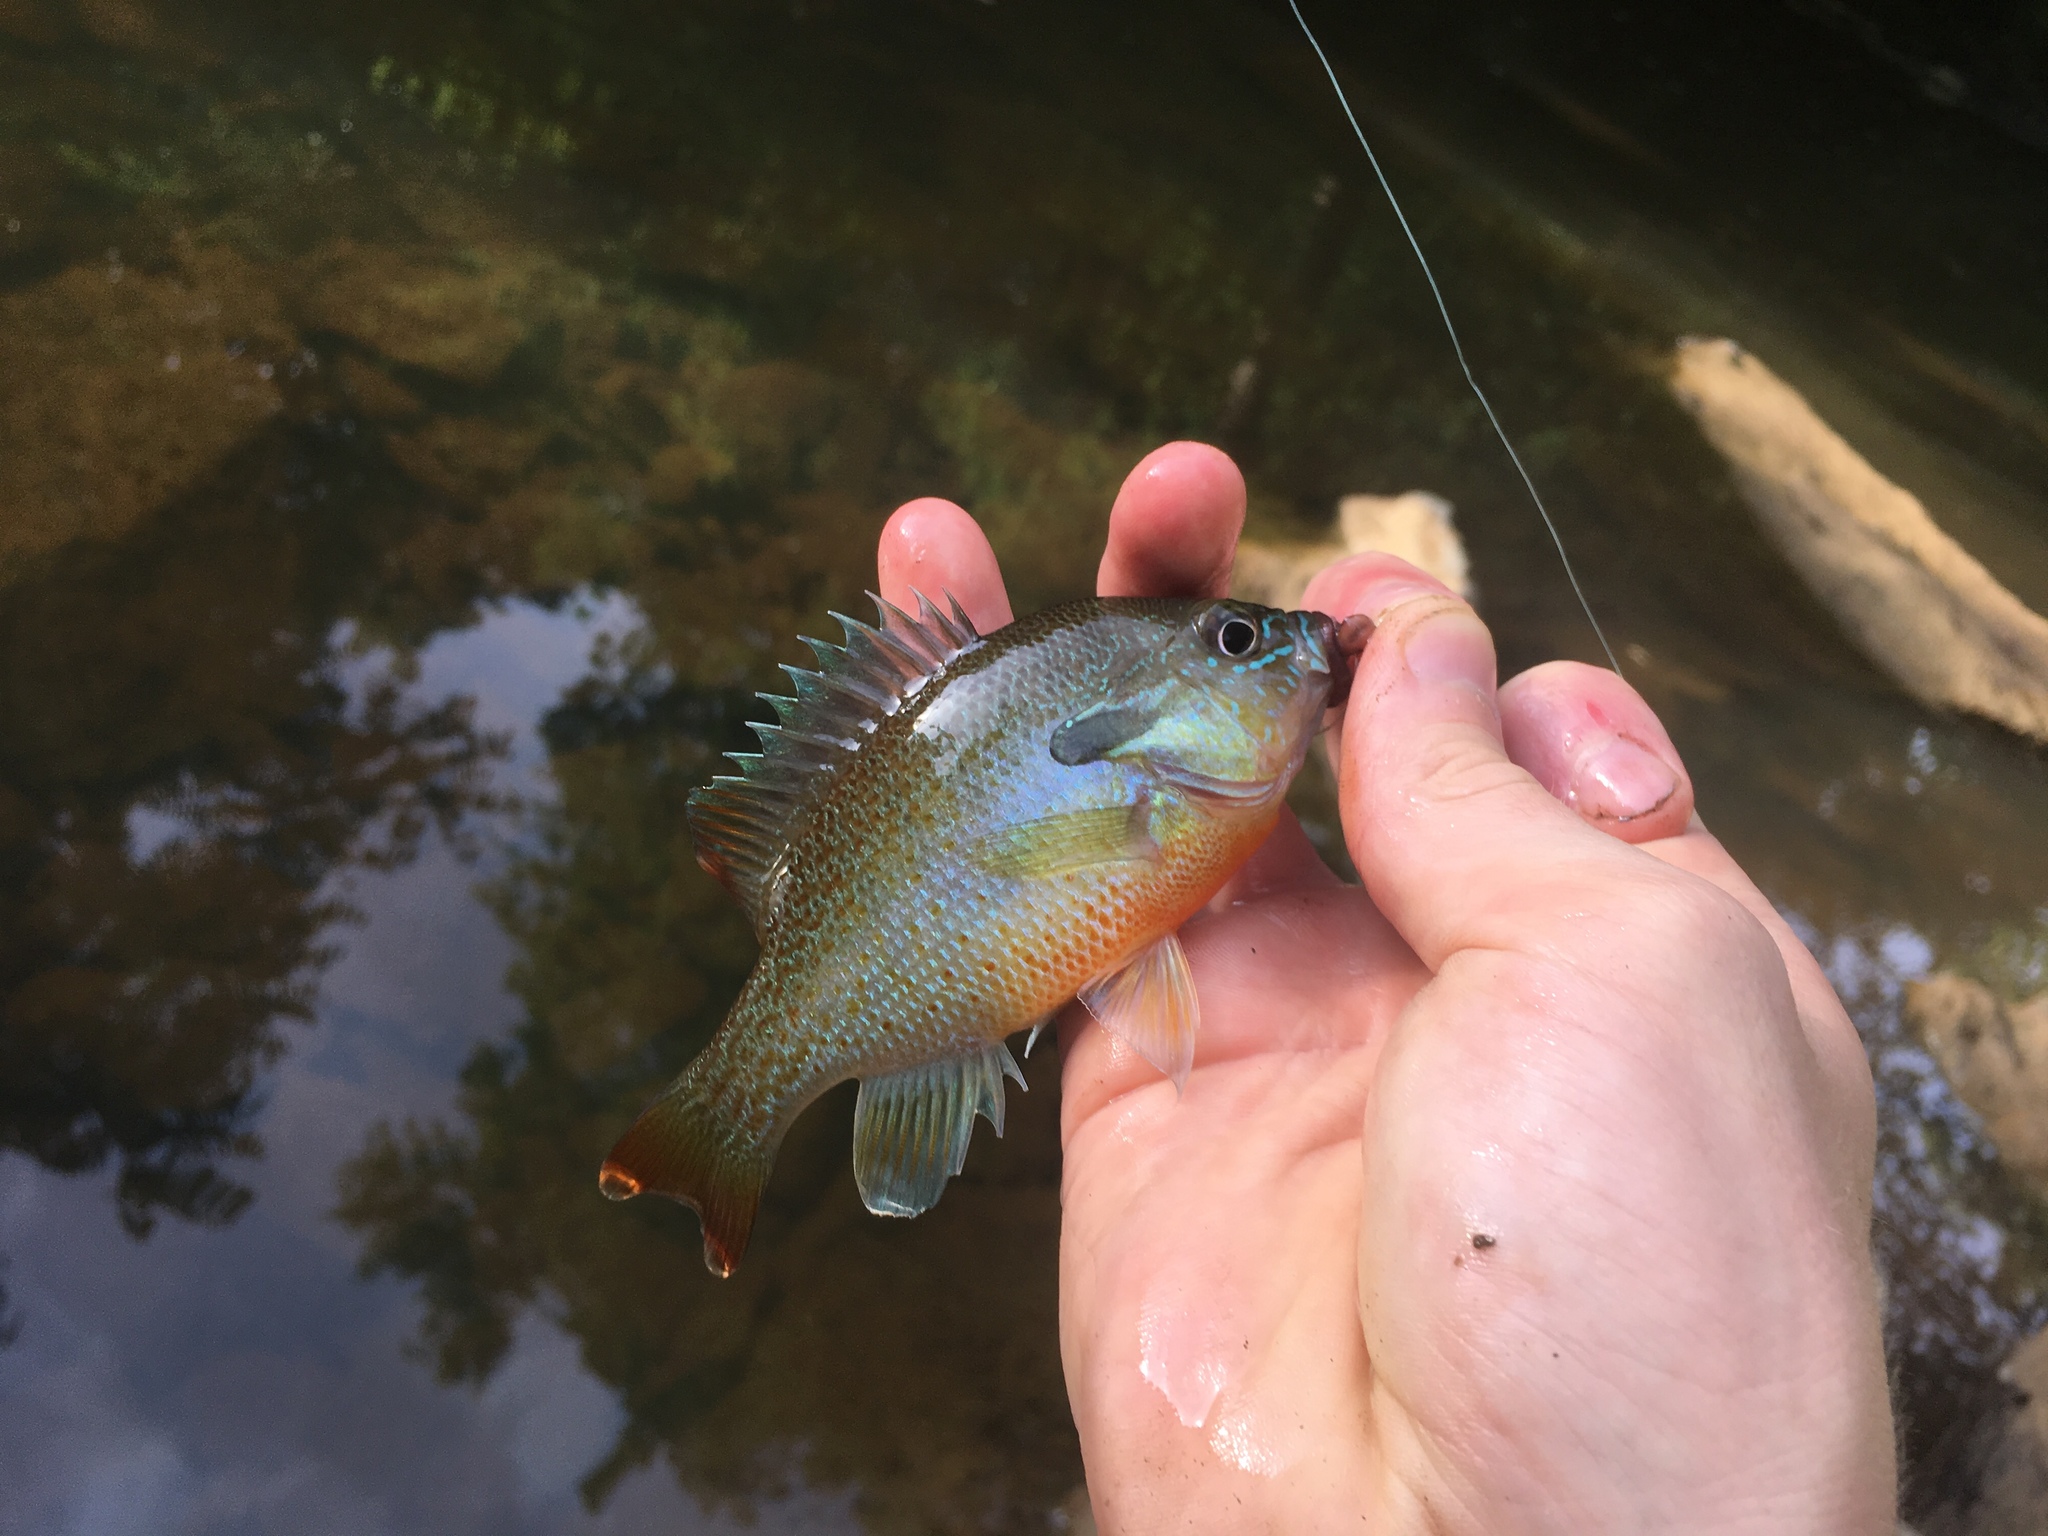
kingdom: Animalia
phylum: Chordata
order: Perciformes
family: Centrarchidae
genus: Lepomis
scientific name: Lepomis auritus
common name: Redbreast sunfish
